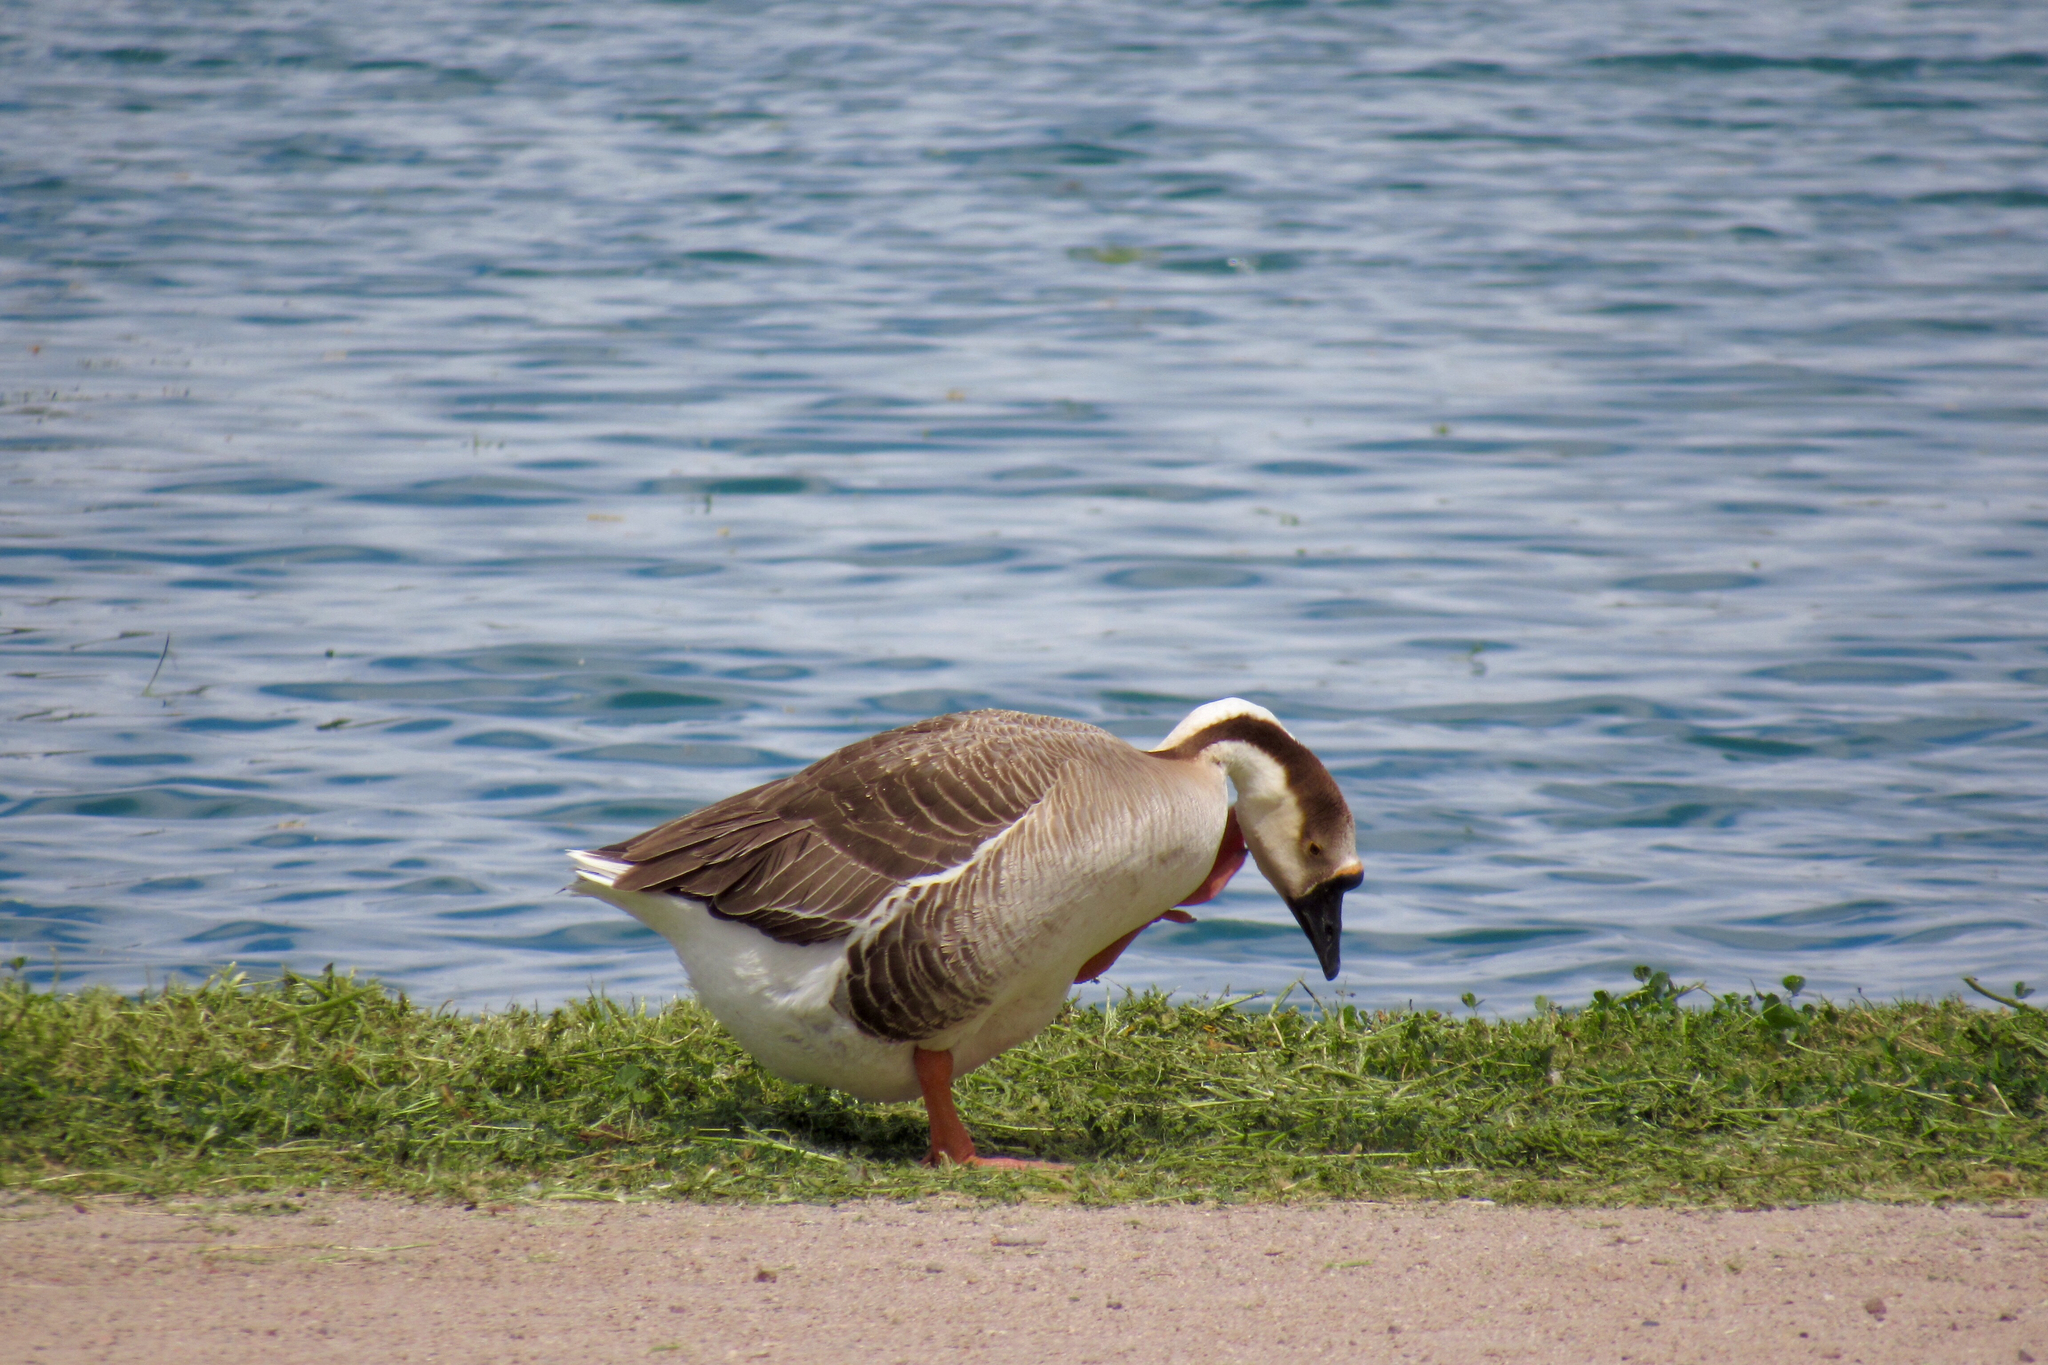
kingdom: Animalia
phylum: Chordata
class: Aves
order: Anseriformes
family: Anatidae
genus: Anser
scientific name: Anser cygnoides
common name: Swan goose
